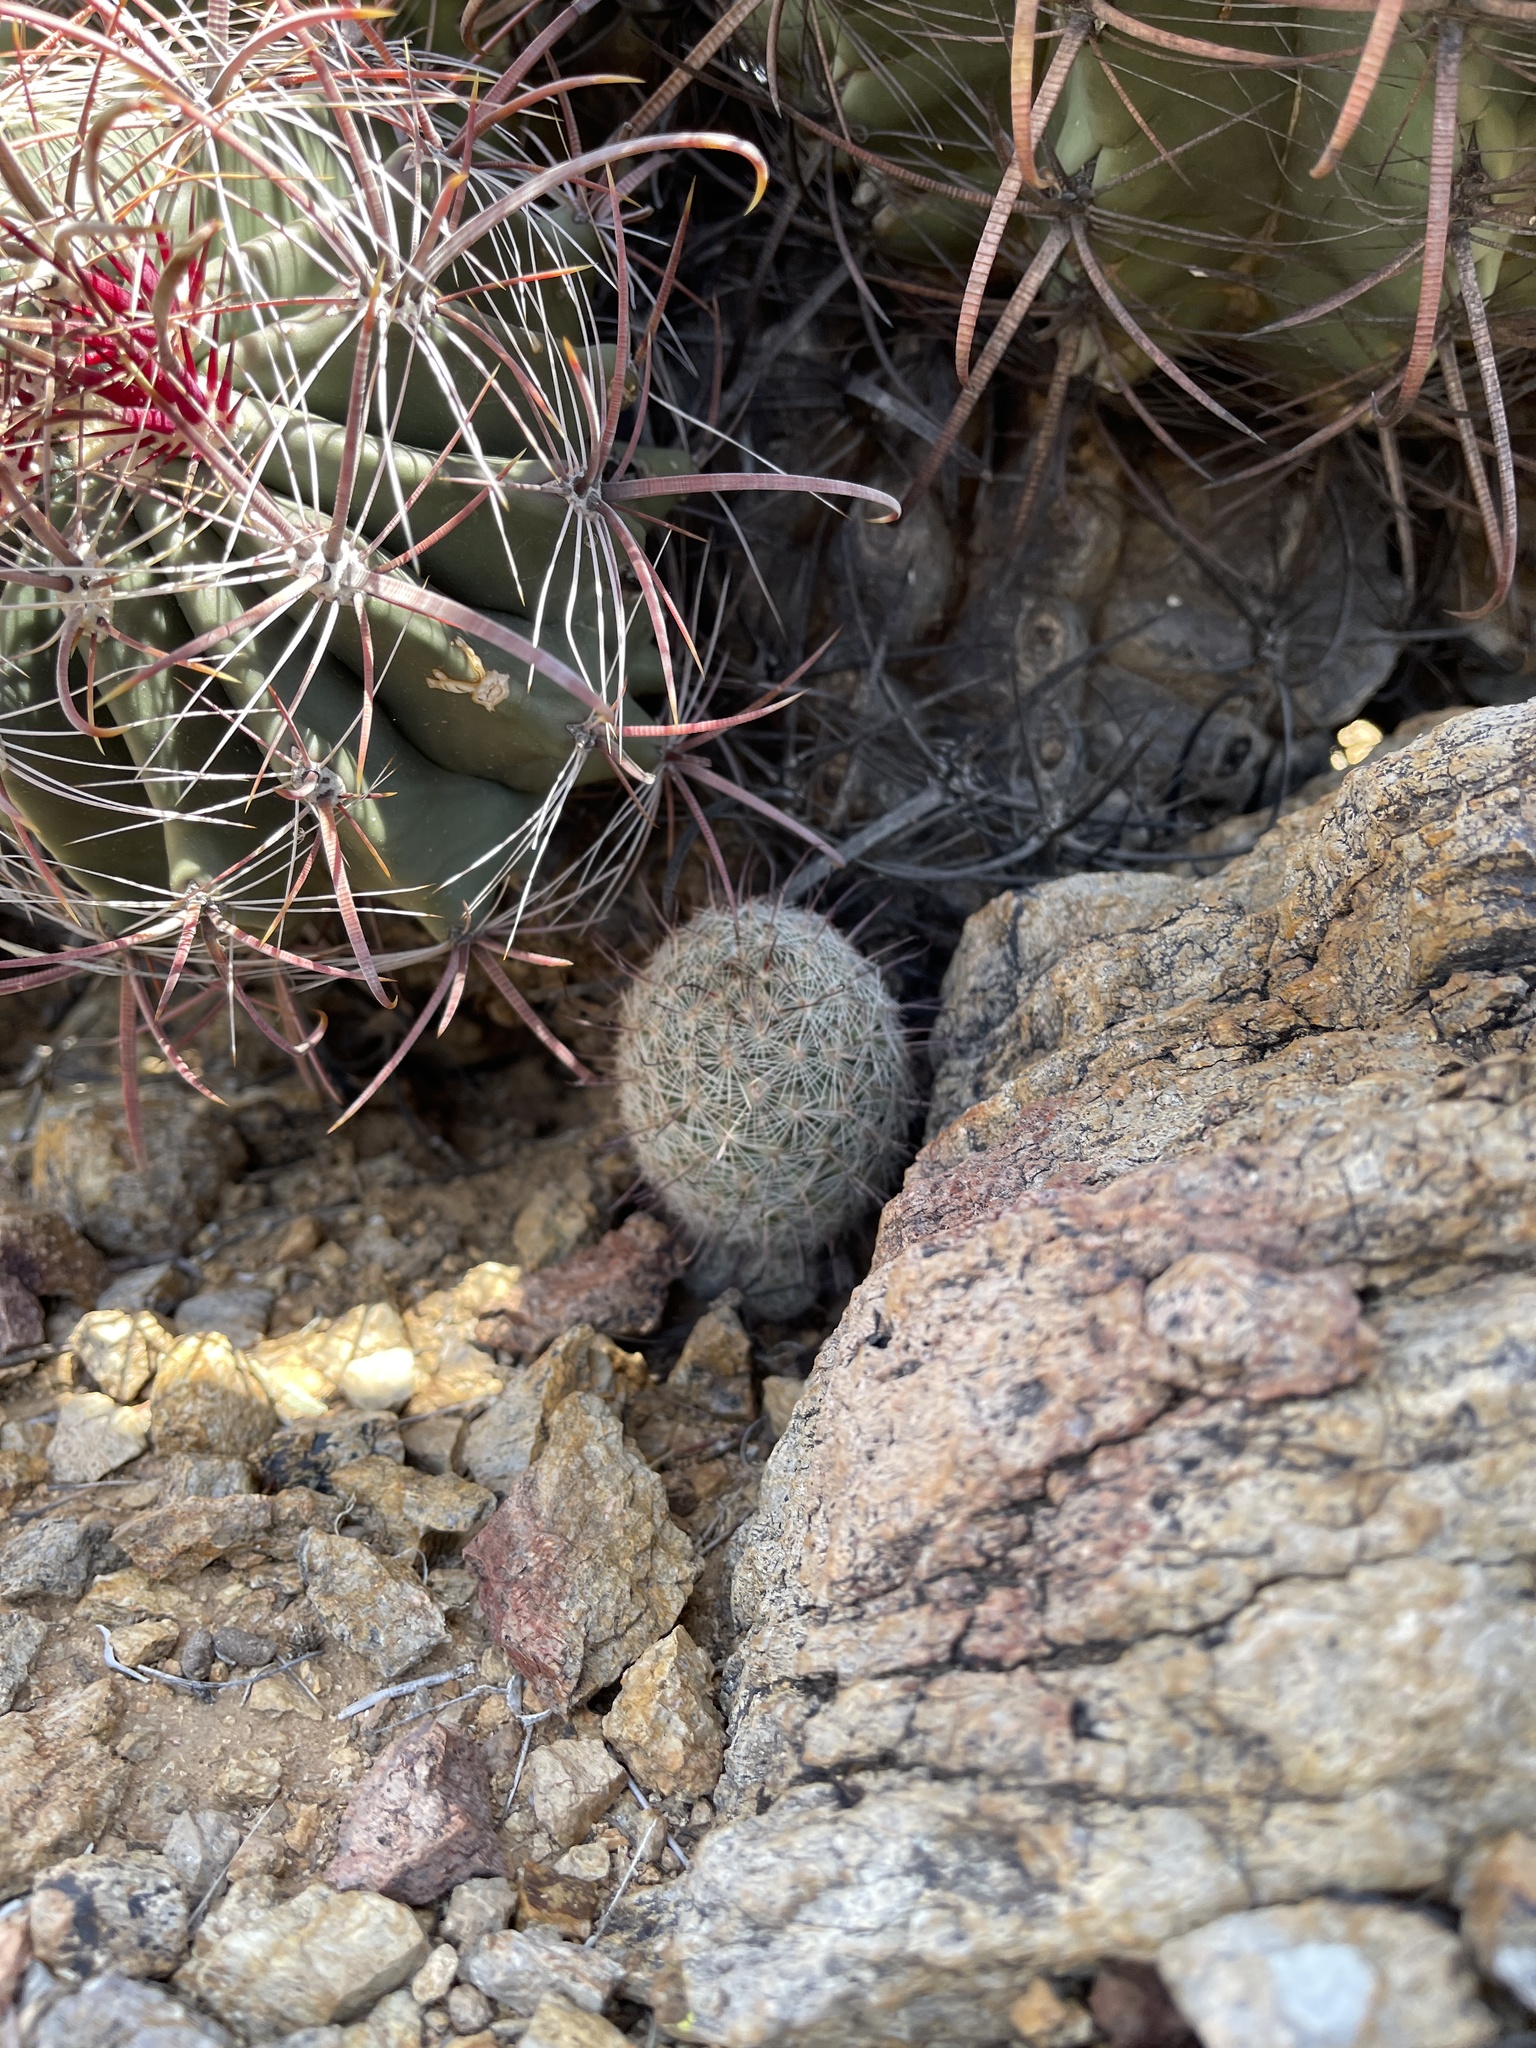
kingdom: Plantae
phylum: Tracheophyta
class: Magnoliopsida
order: Caryophyllales
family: Cactaceae
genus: Cochemiea
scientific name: Cochemiea grahamii
